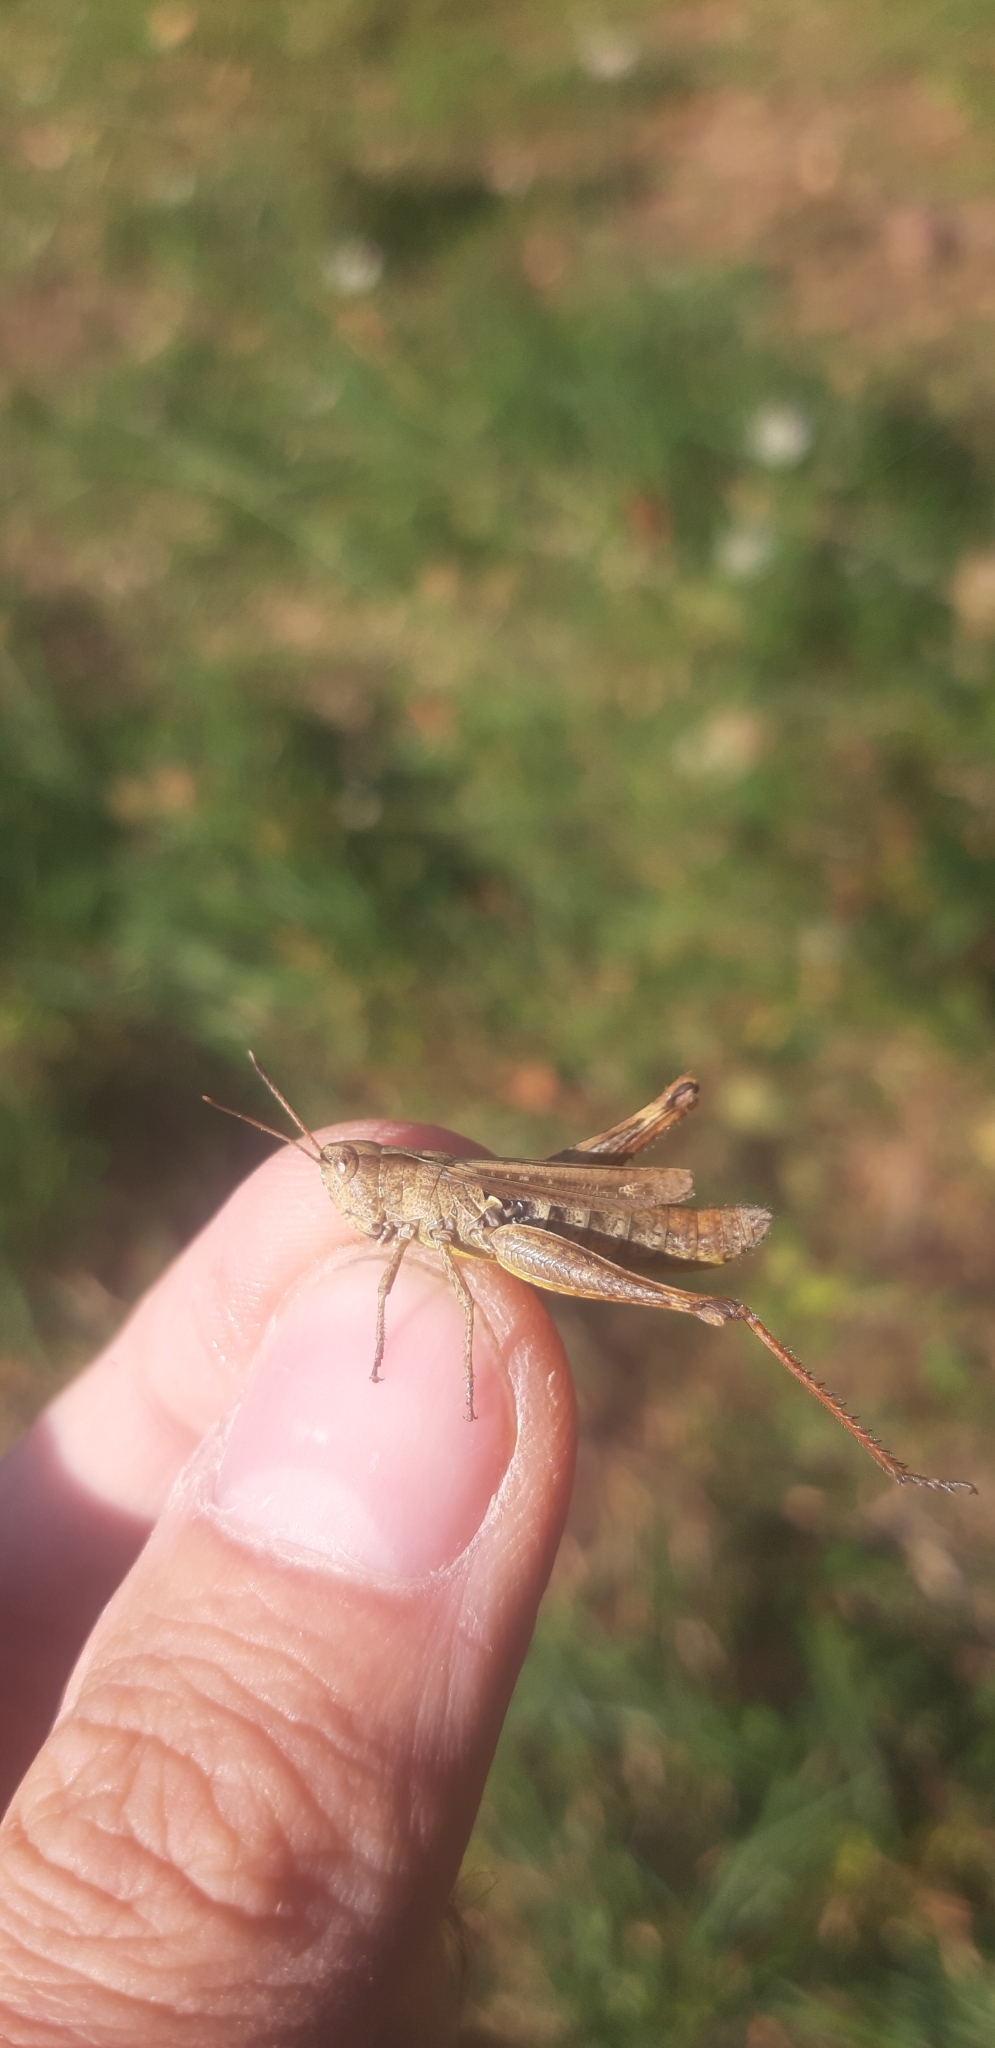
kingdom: Animalia
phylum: Arthropoda
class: Insecta
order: Orthoptera
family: Acrididae
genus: Gomphocerippus
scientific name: Gomphocerippus rufus
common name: Rufous grasshopper
